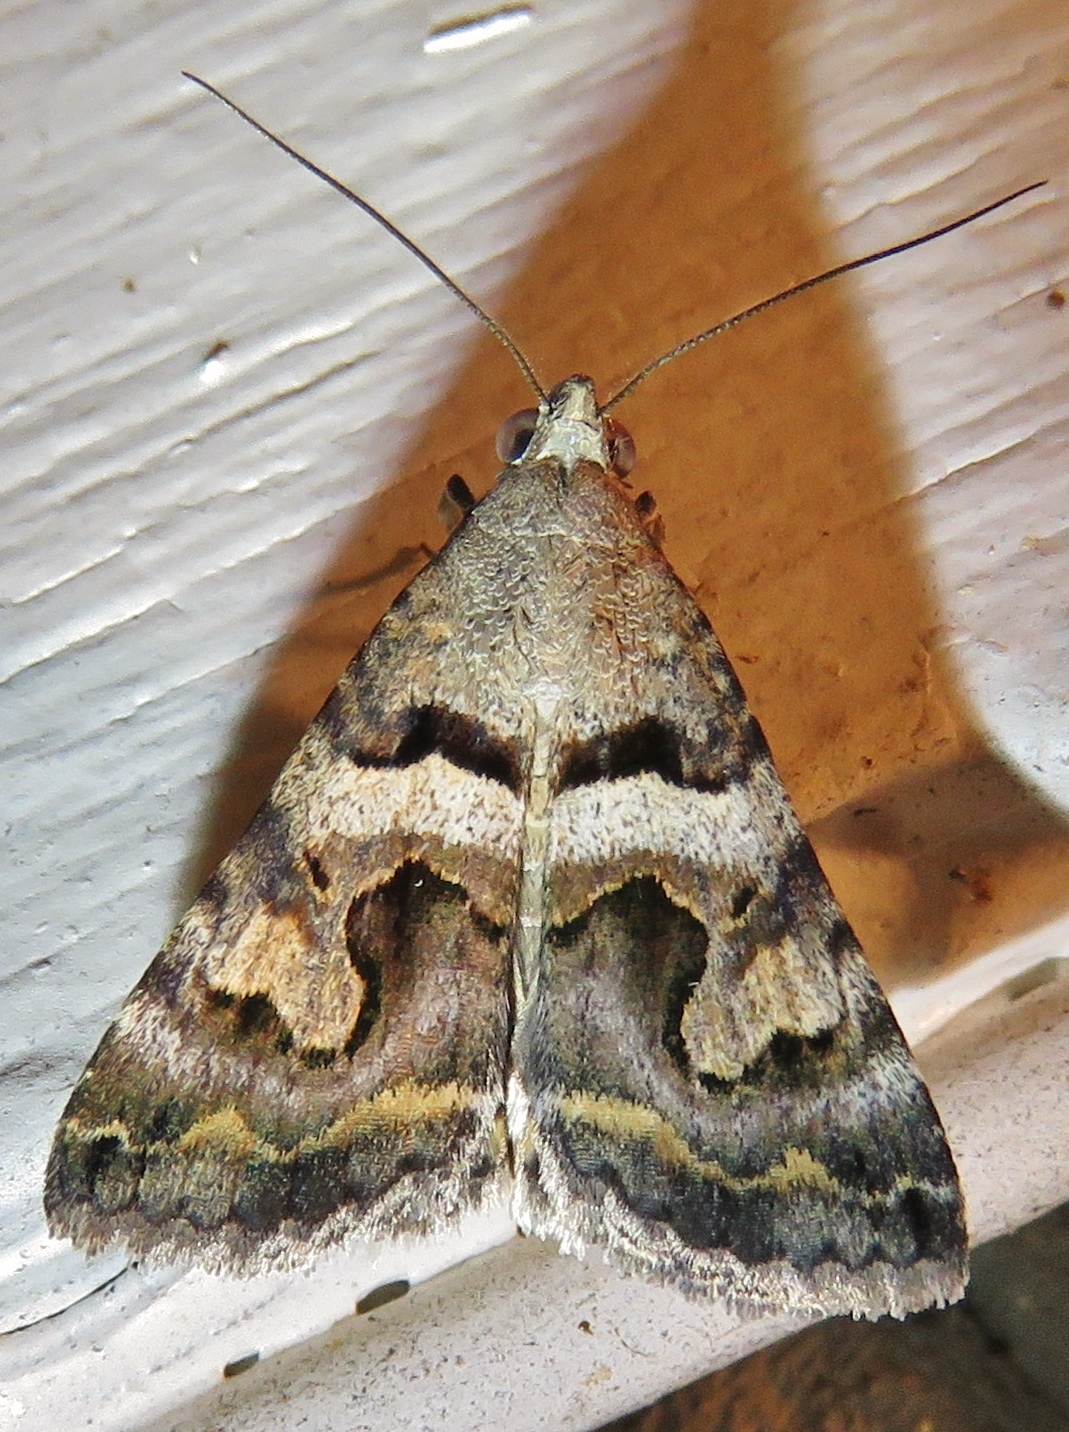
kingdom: Animalia
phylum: Arthropoda
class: Insecta
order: Lepidoptera
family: Erebidae
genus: Bulia
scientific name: Bulia deducta
